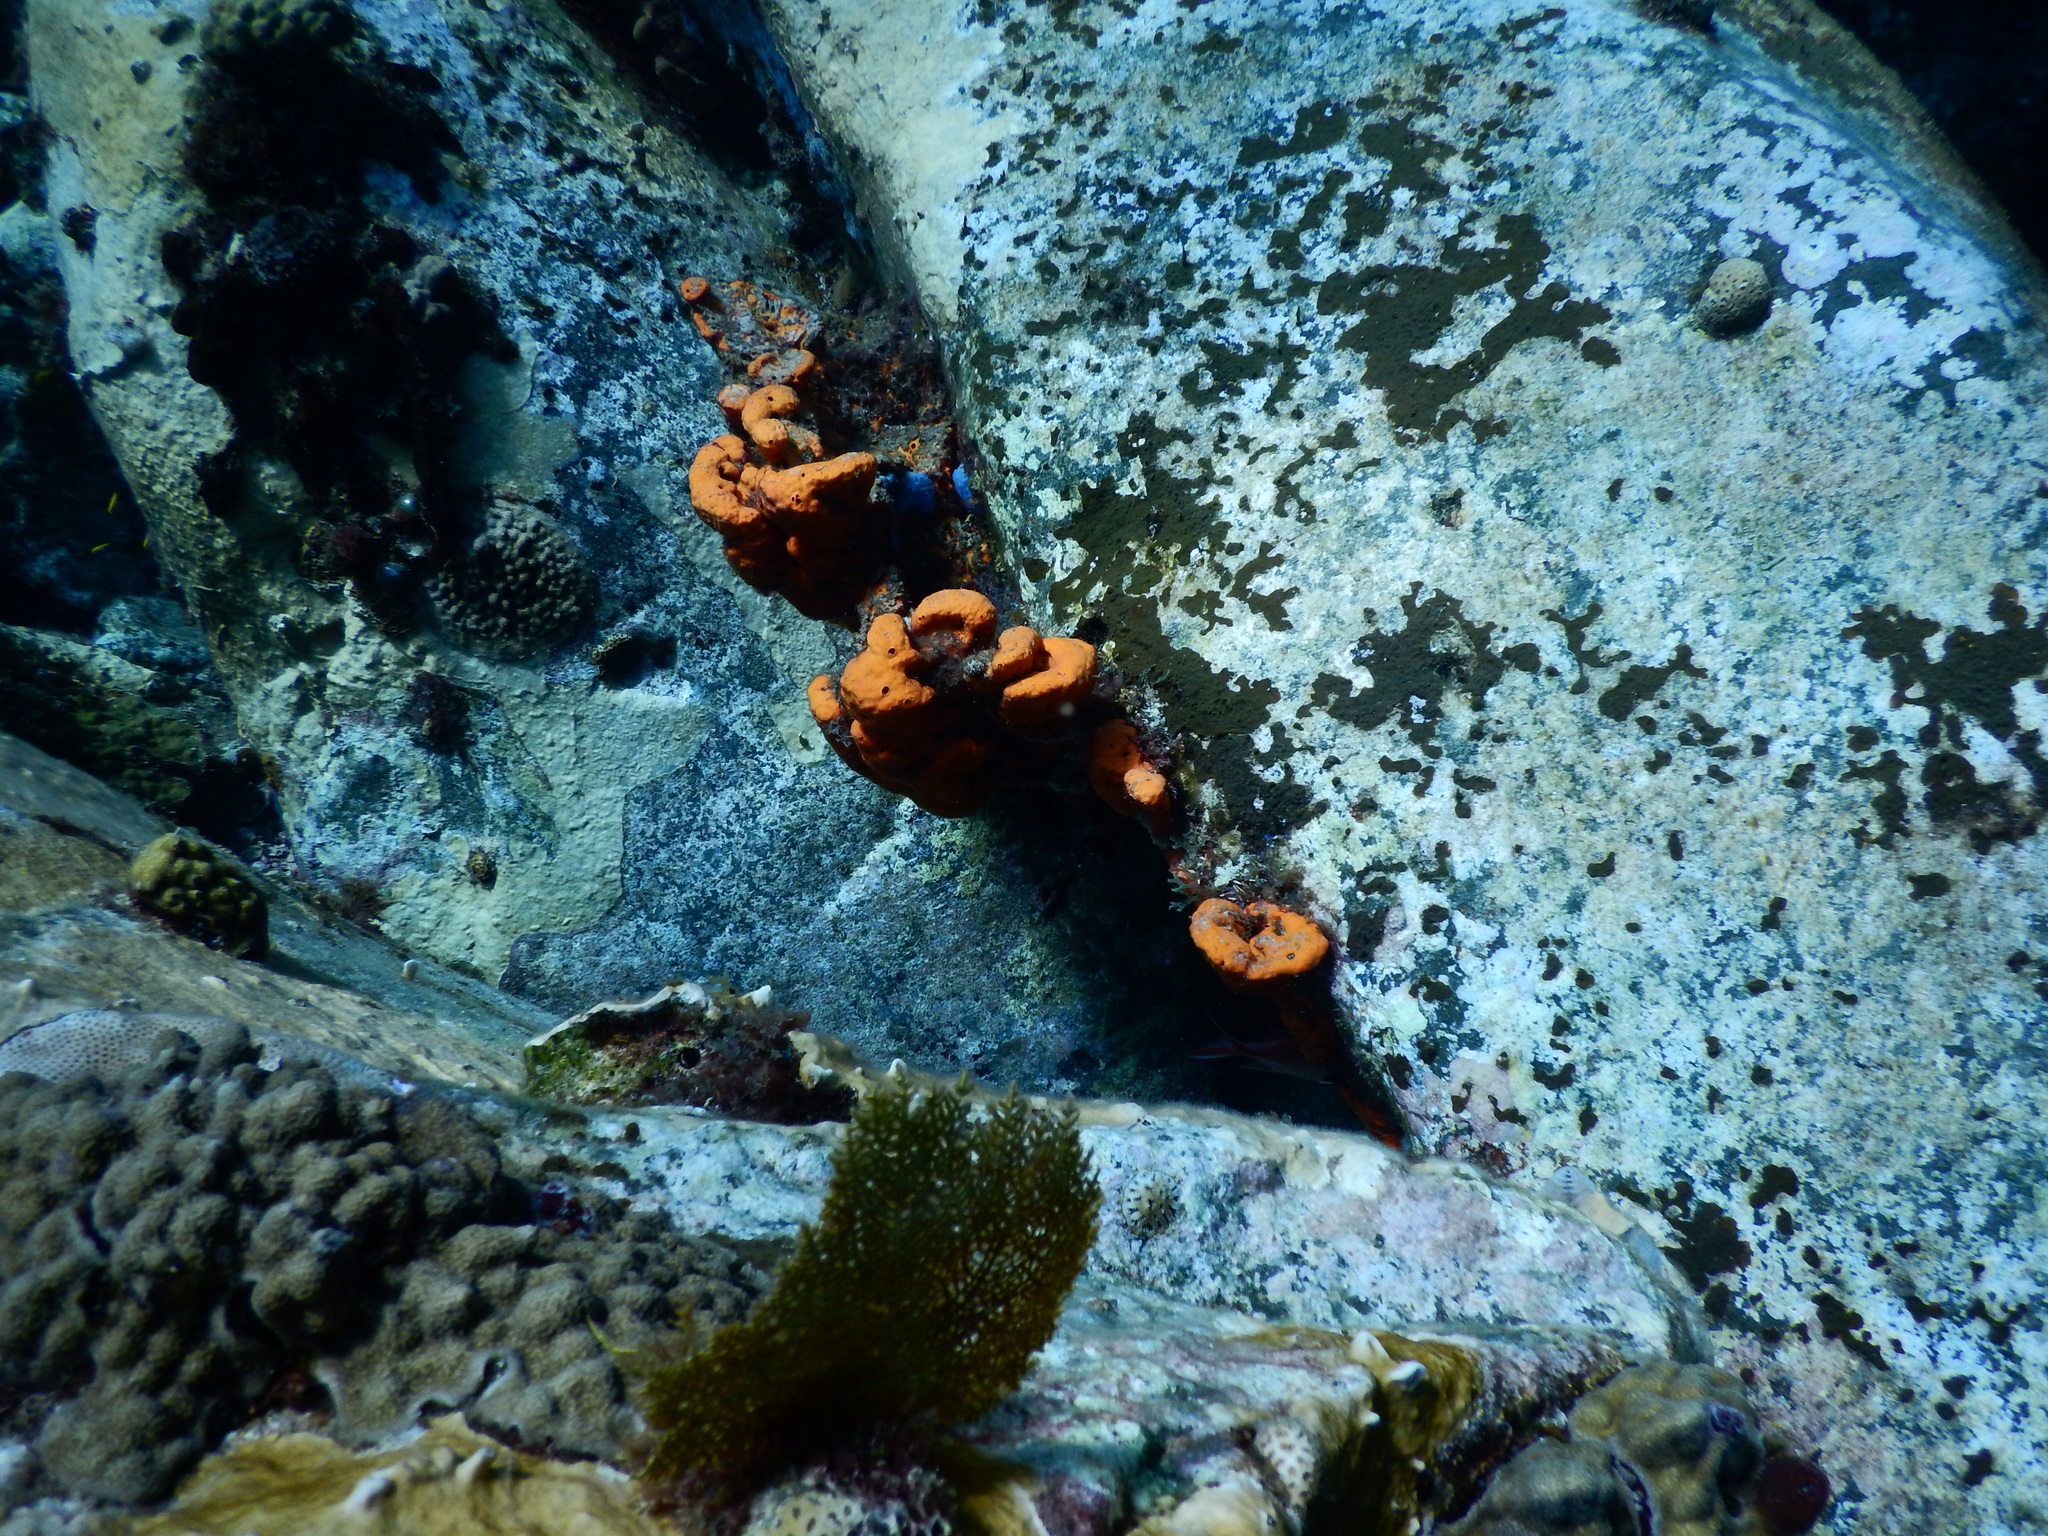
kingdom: Animalia
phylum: Porifera
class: Demospongiae
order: Agelasida
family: Agelasidae
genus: Agelas
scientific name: Agelas clathrodes
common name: Orange elephant ear sponge
